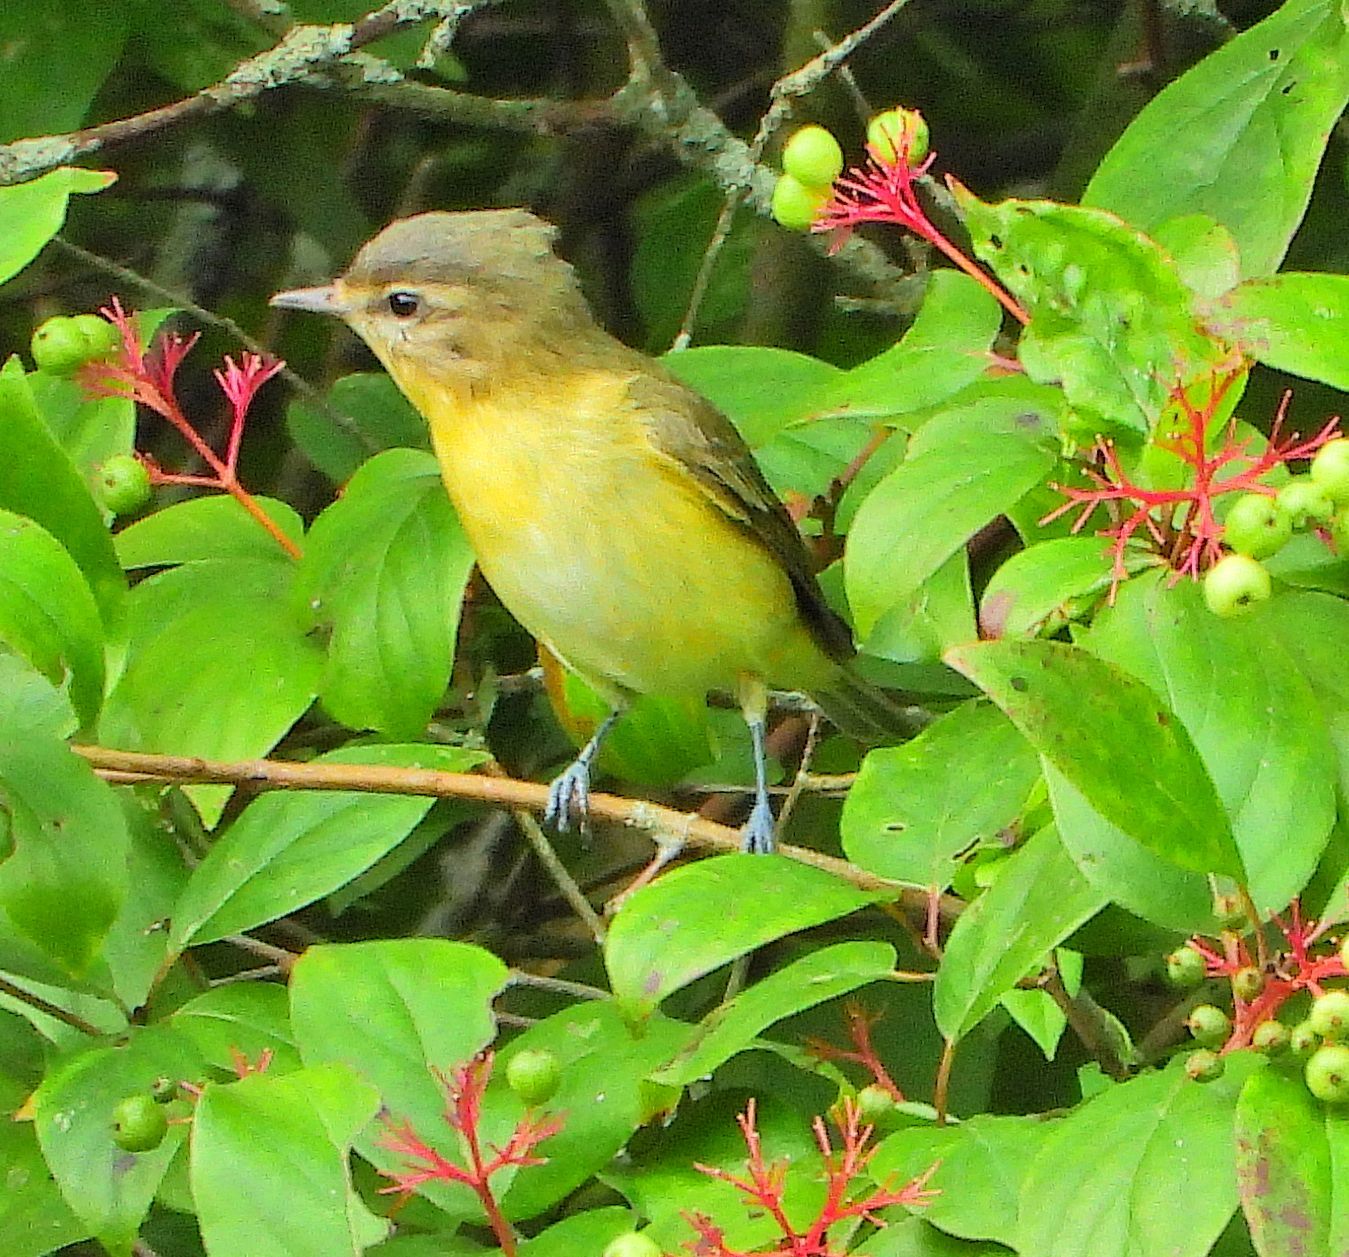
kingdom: Animalia
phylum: Chordata
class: Aves
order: Passeriformes
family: Vireonidae
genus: Vireo
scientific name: Vireo philadelphicus
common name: Philadelphia vireo
